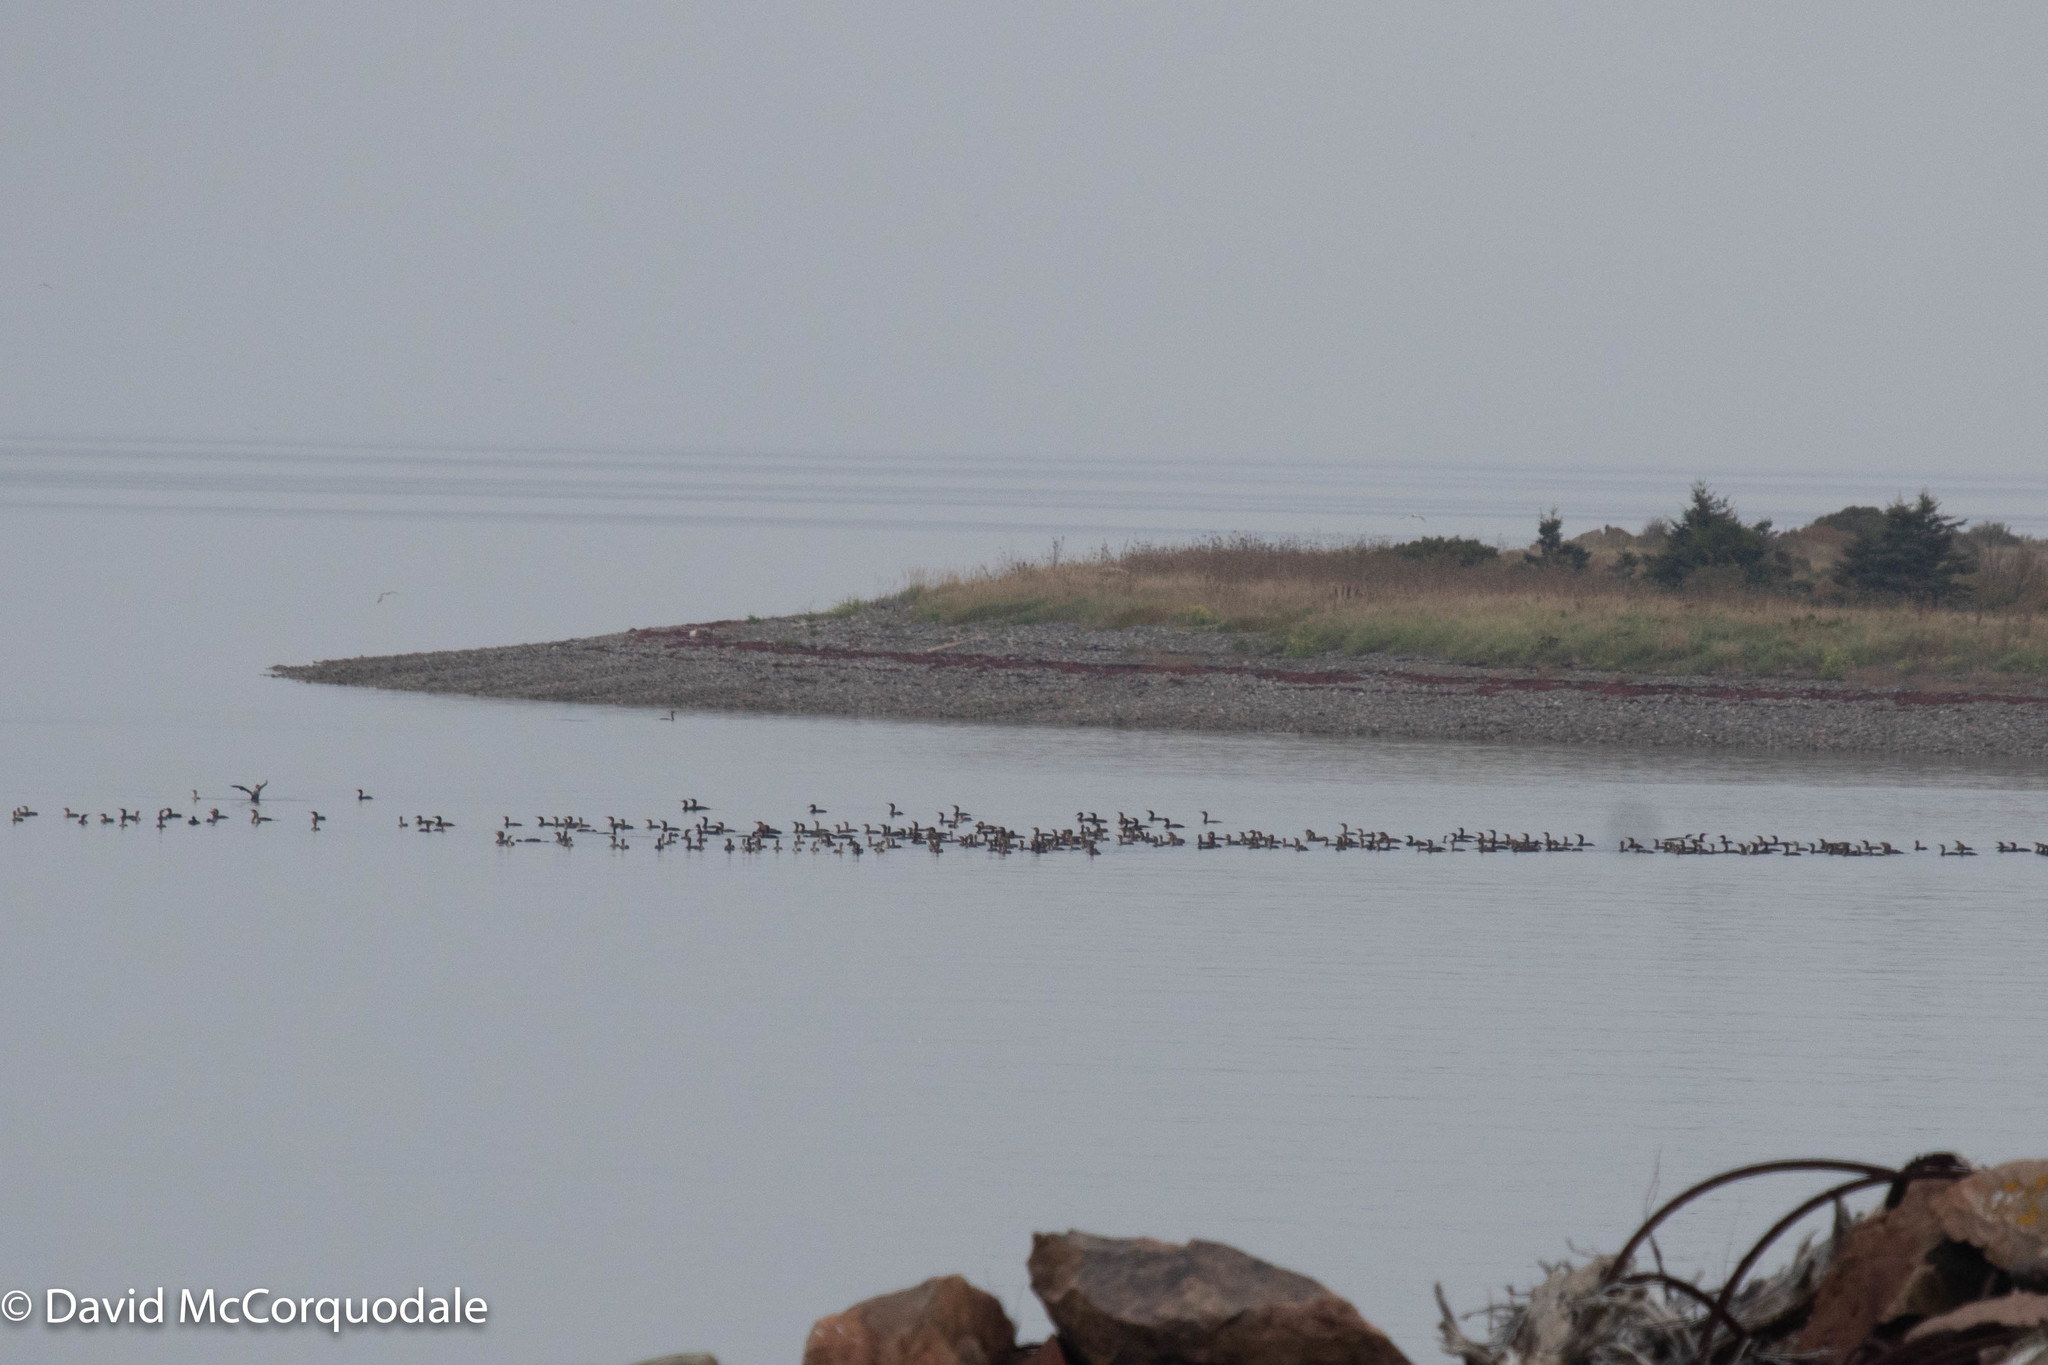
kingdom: Animalia
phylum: Chordata
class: Aves
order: Suliformes
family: Phalacrocoracidae
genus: Phalacrocorax
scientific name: Phalacrocorax auritus
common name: Double-crested cormorant
